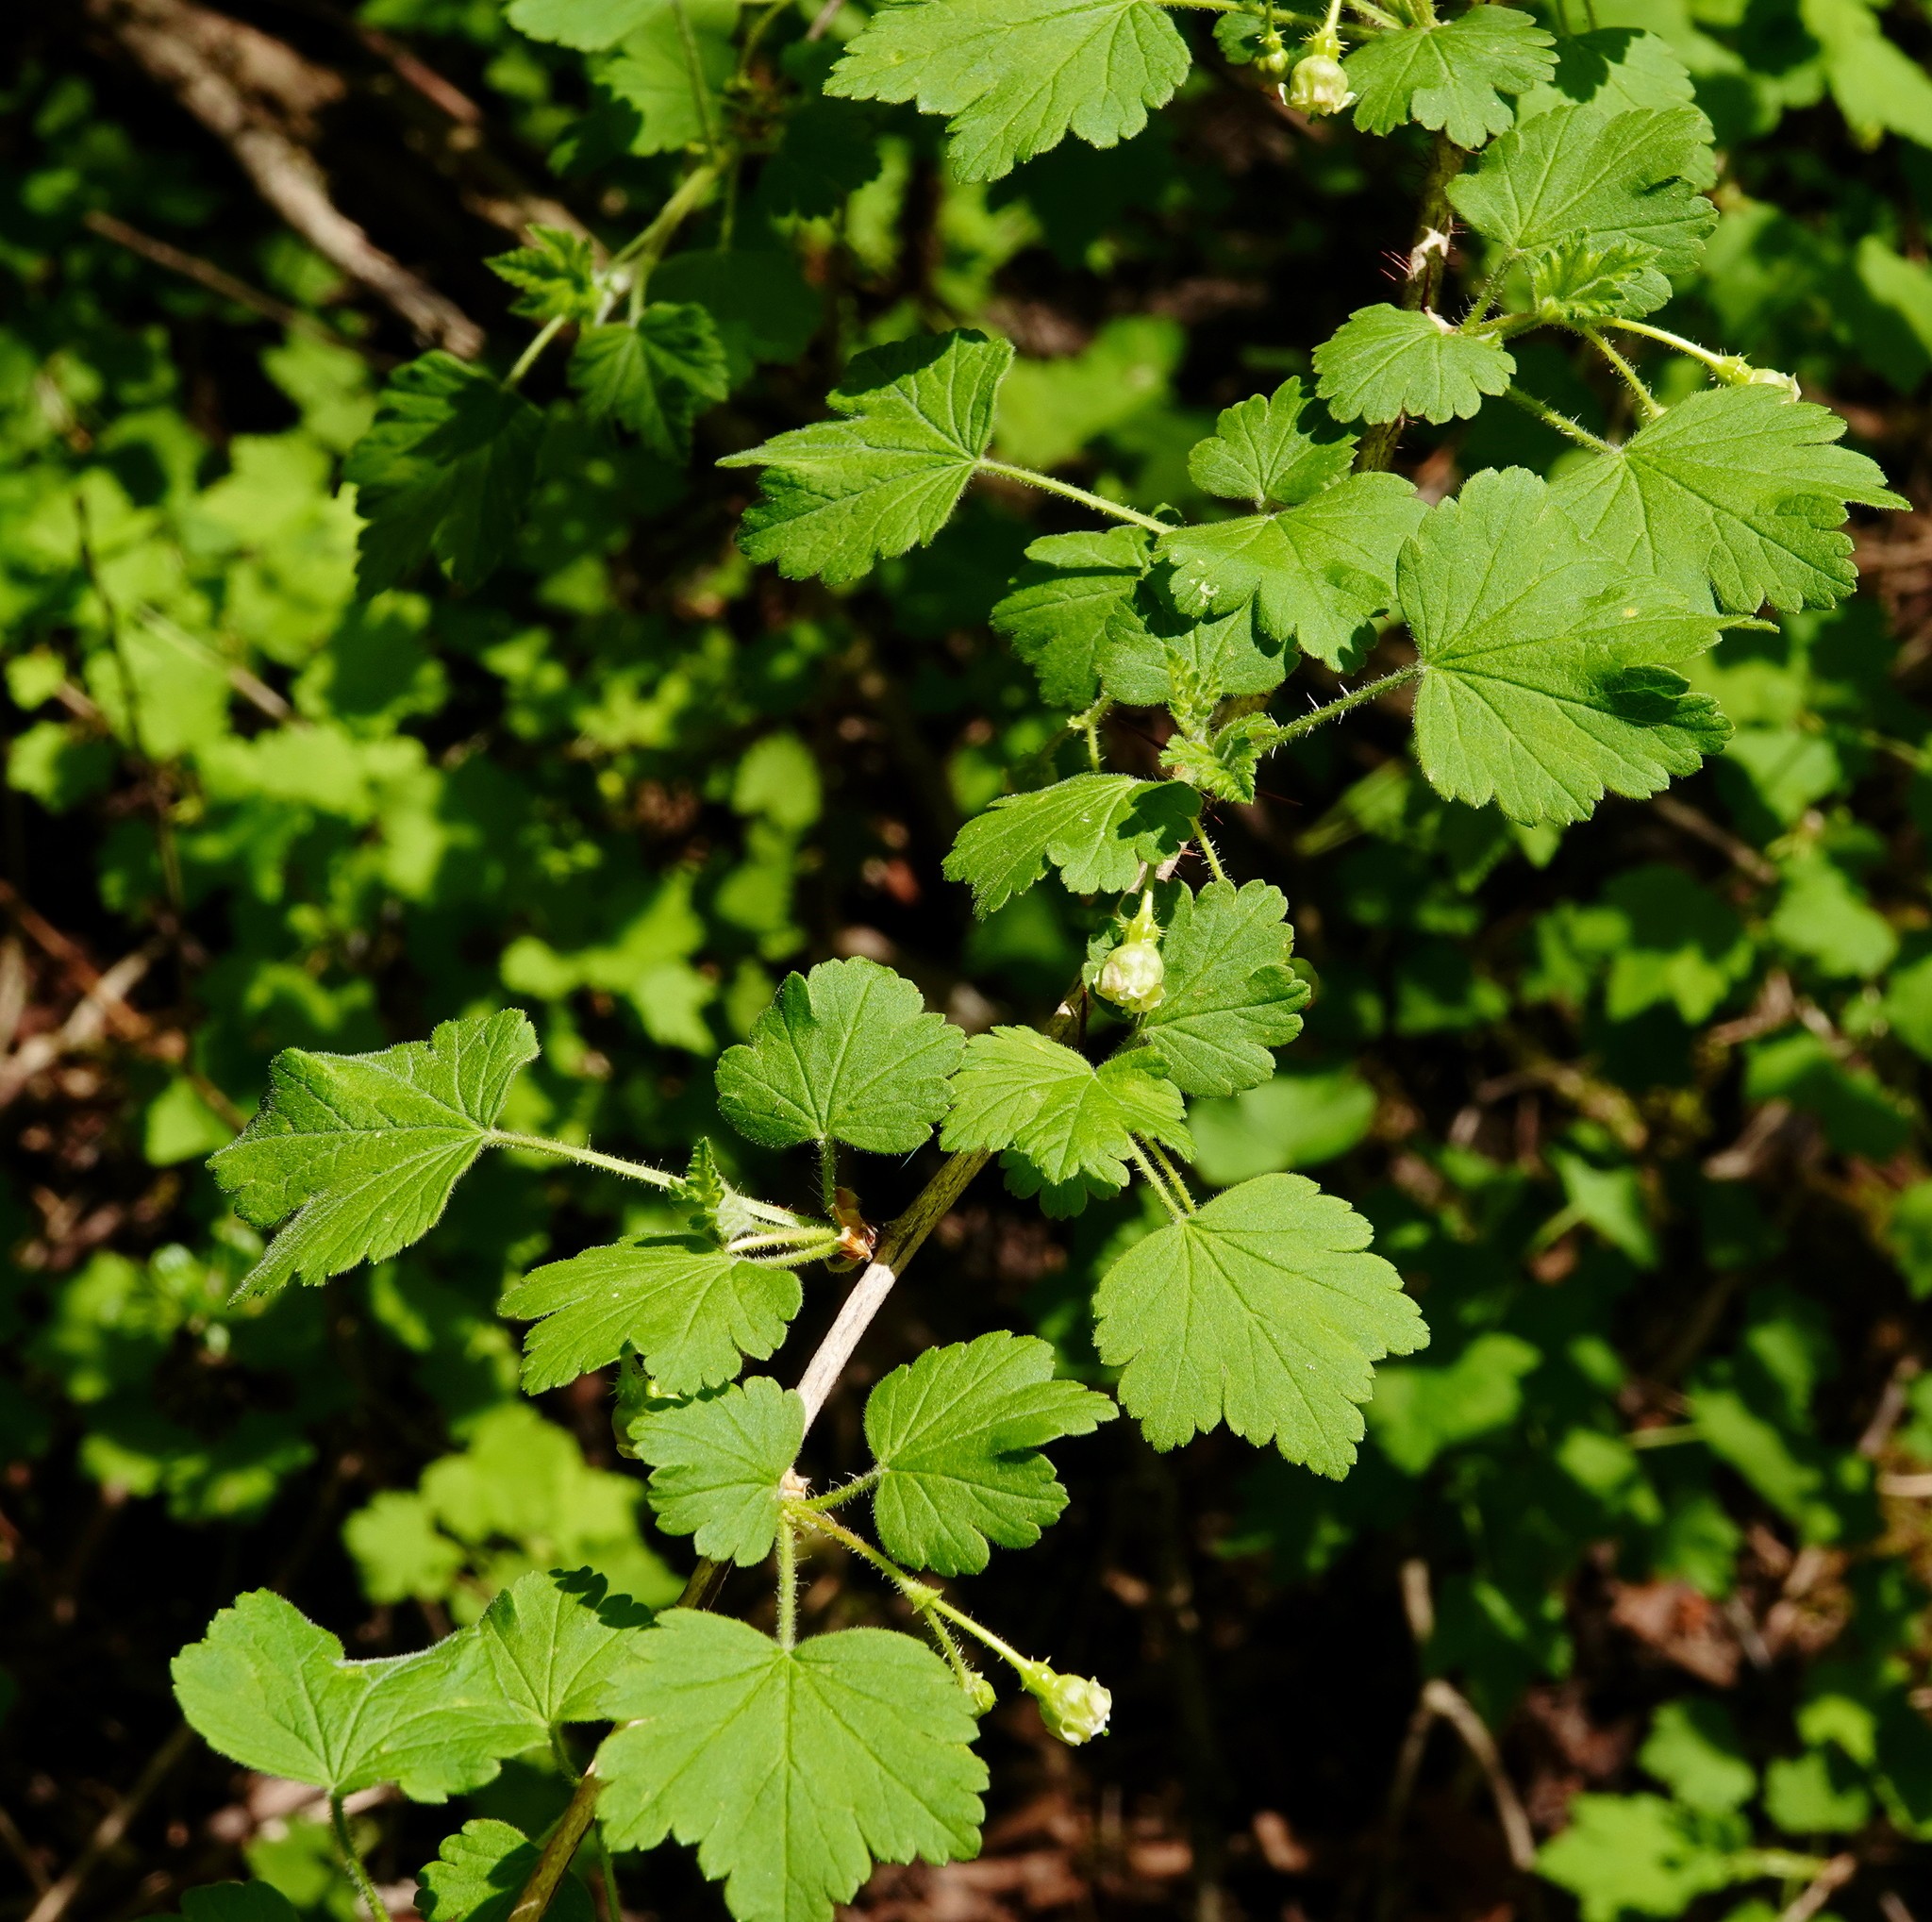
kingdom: Plantae
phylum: Tracheophyta
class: Magnoliopsida
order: Saxifragales
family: Grossulariaceae
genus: Ribes
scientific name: Ribes cynosbati
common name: American gooseberry
